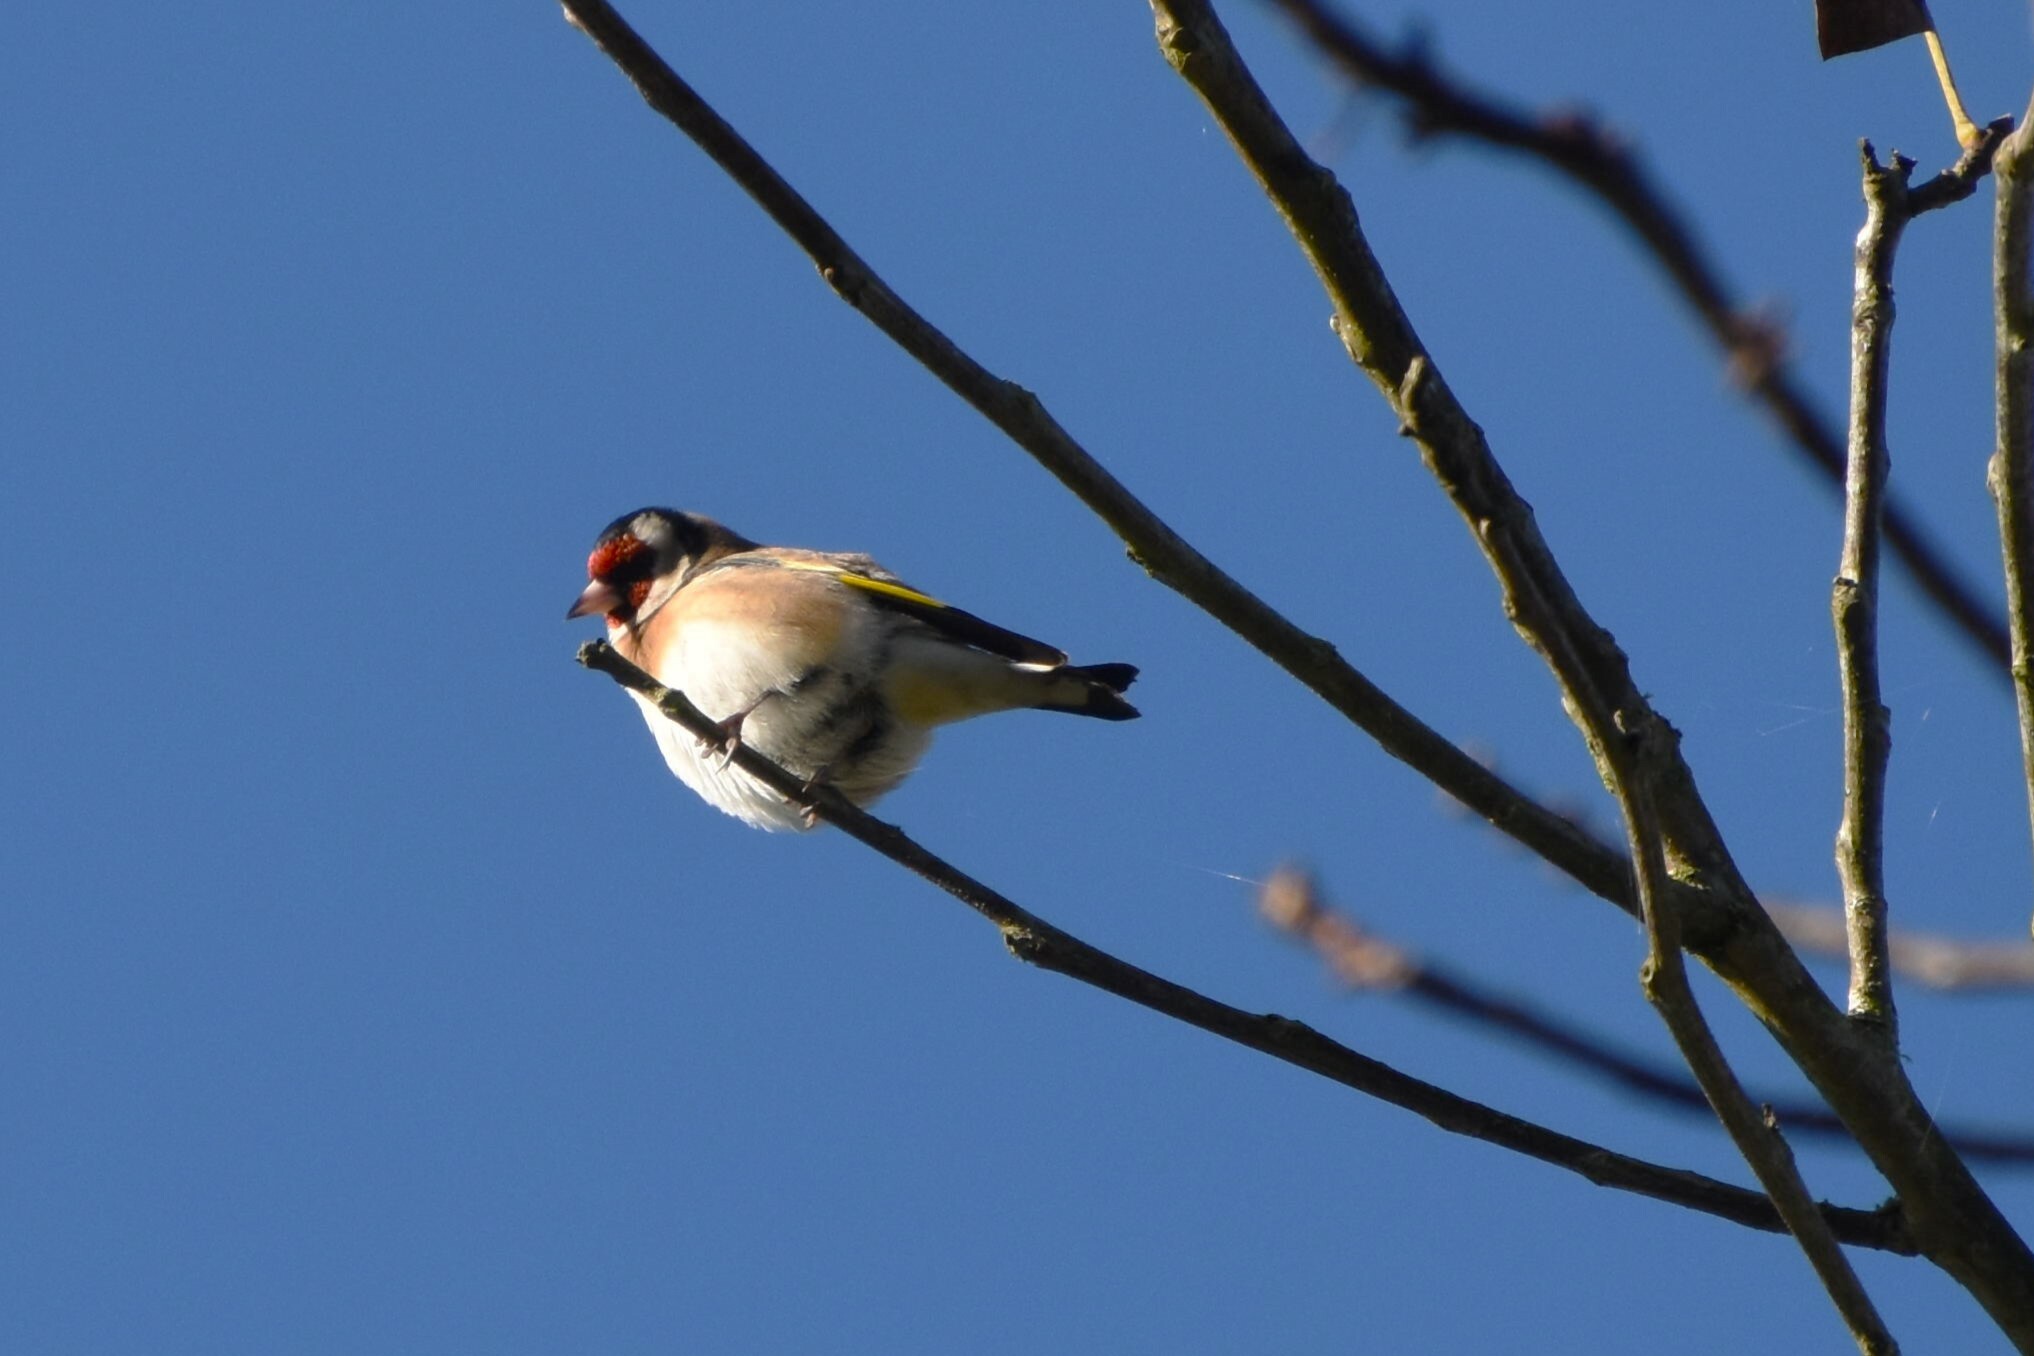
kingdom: Animalia
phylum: Chordata
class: Aves
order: Passeriformes
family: Fringillidae
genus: Carduelis
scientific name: Carduelis carduelis
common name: European goldfinch
